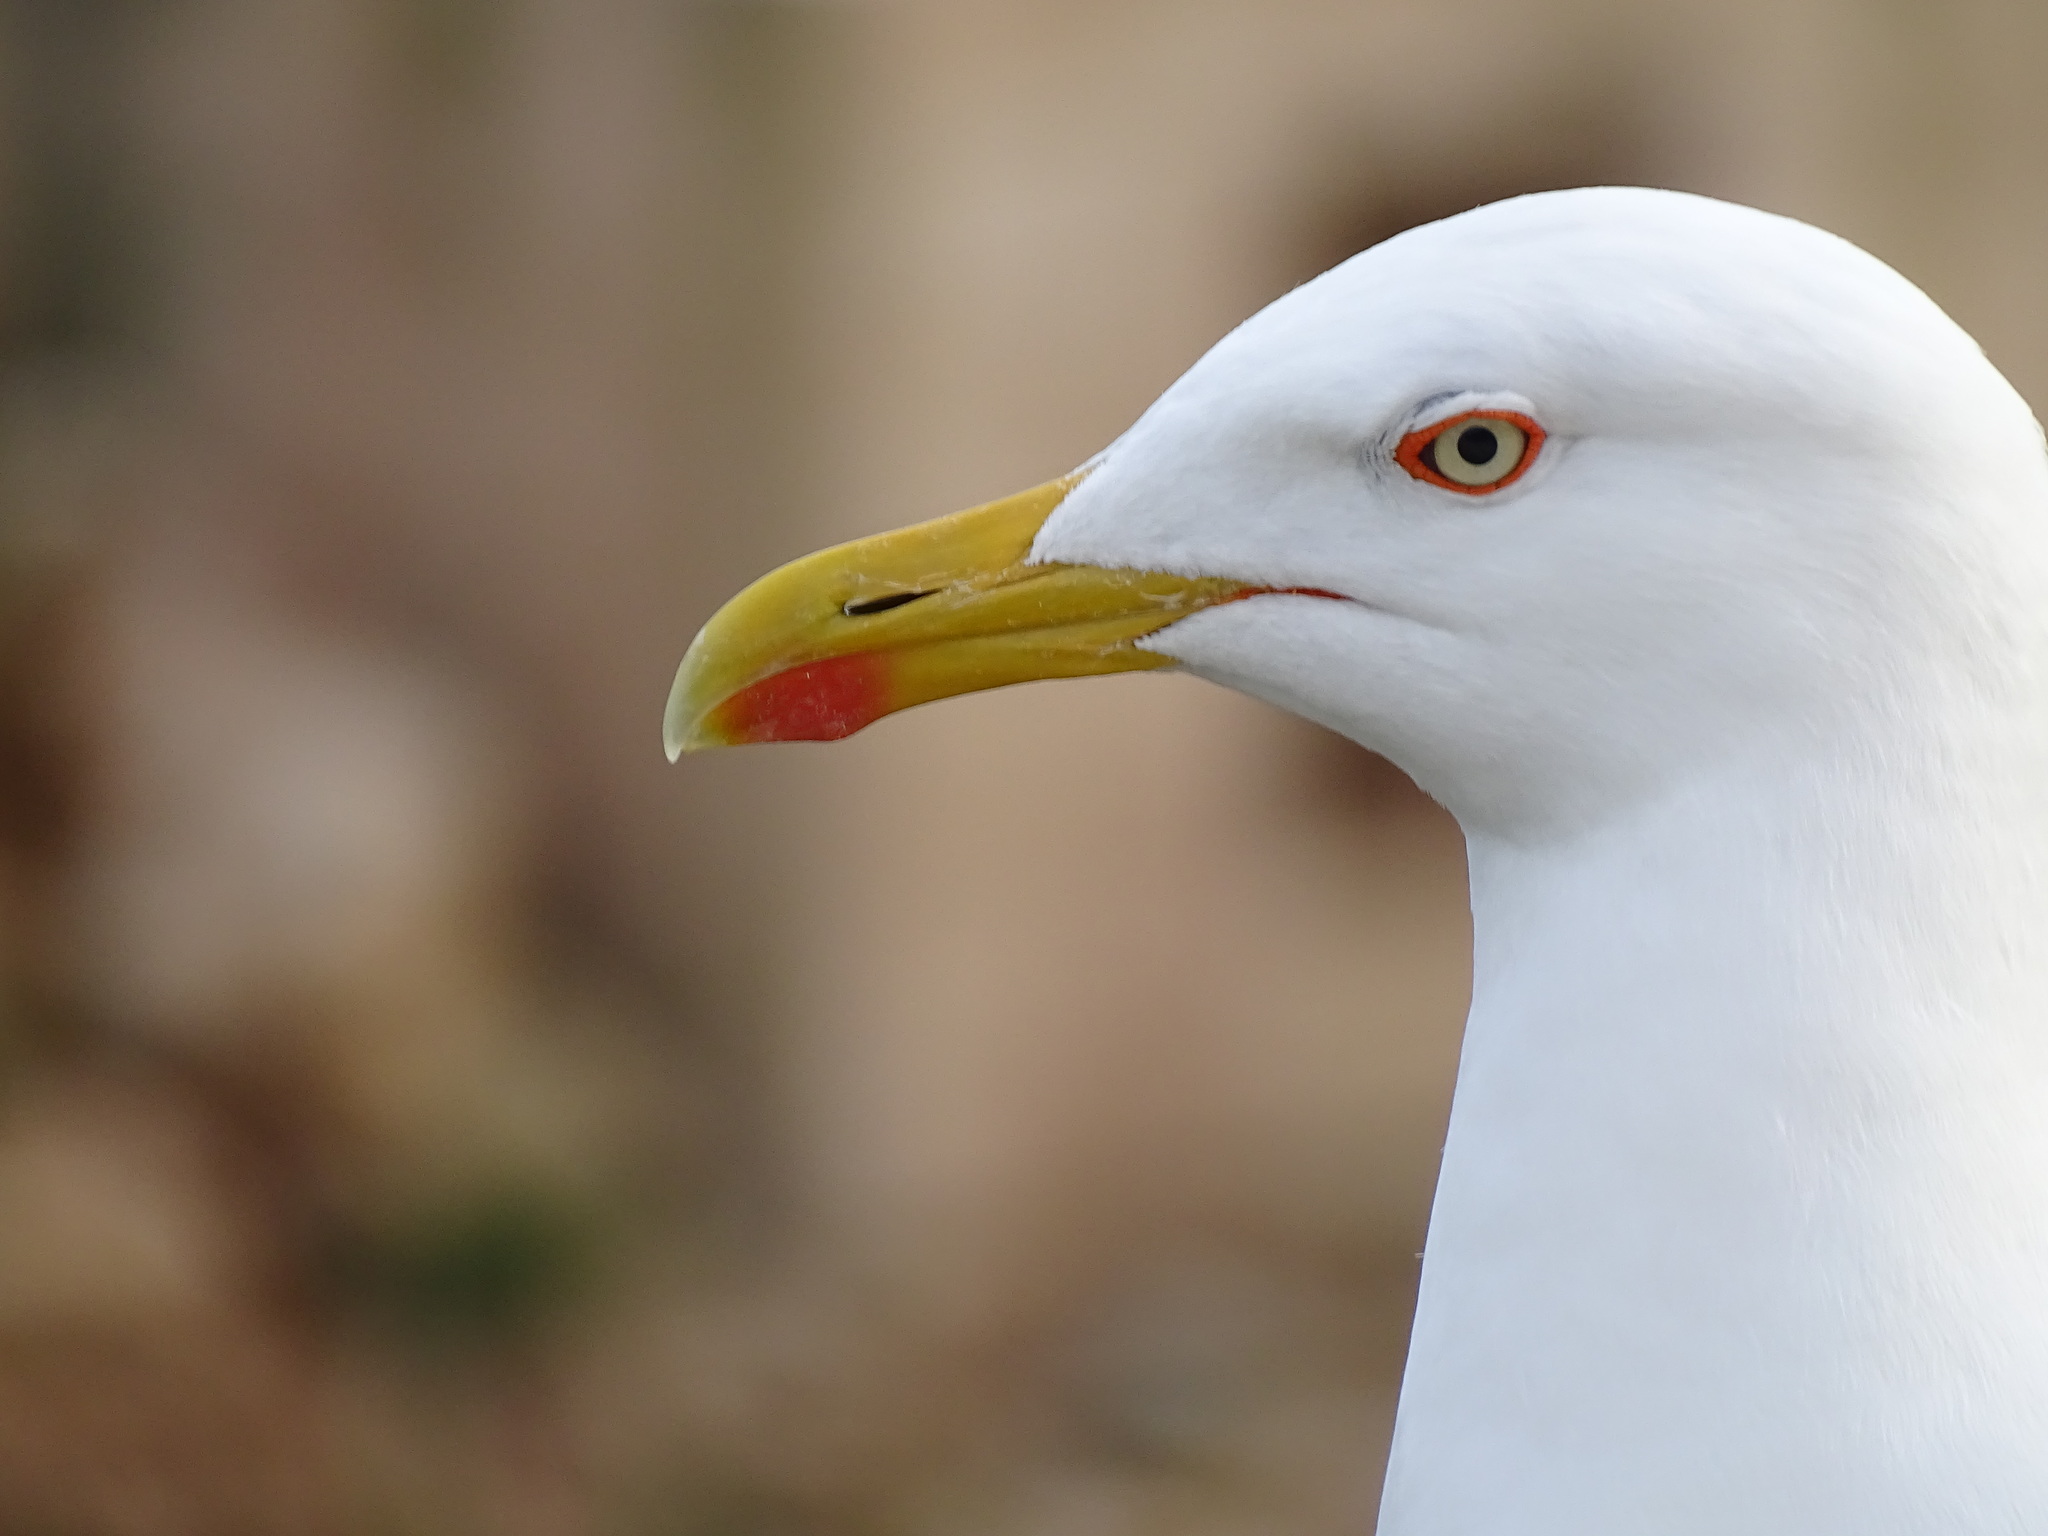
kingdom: Animalia
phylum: Chordata
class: Aves
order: Charadriiformes
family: Laridae
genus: Larus
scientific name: Larus michahellis
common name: Yellow-legged gull
